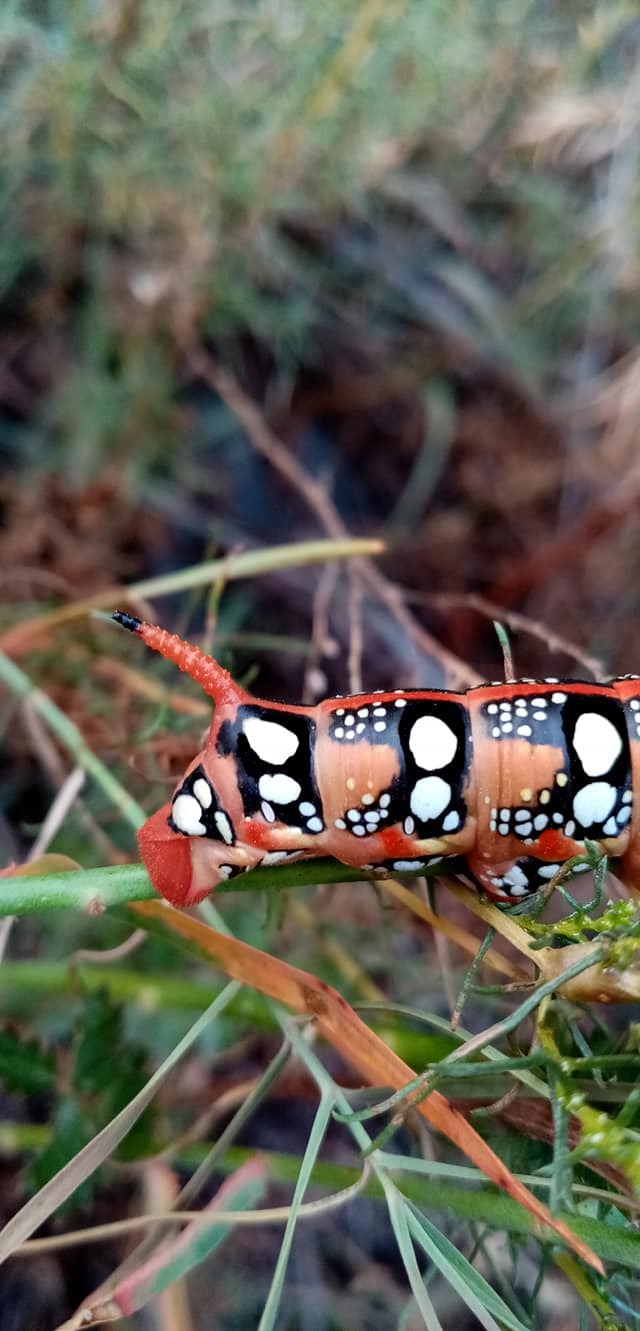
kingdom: Animalia
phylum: Arthropoda
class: Insecta
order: Lepidoptera
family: Sphingidae
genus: Hyles
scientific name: Hyles euphorbiae
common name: Spurge hawk-moth
